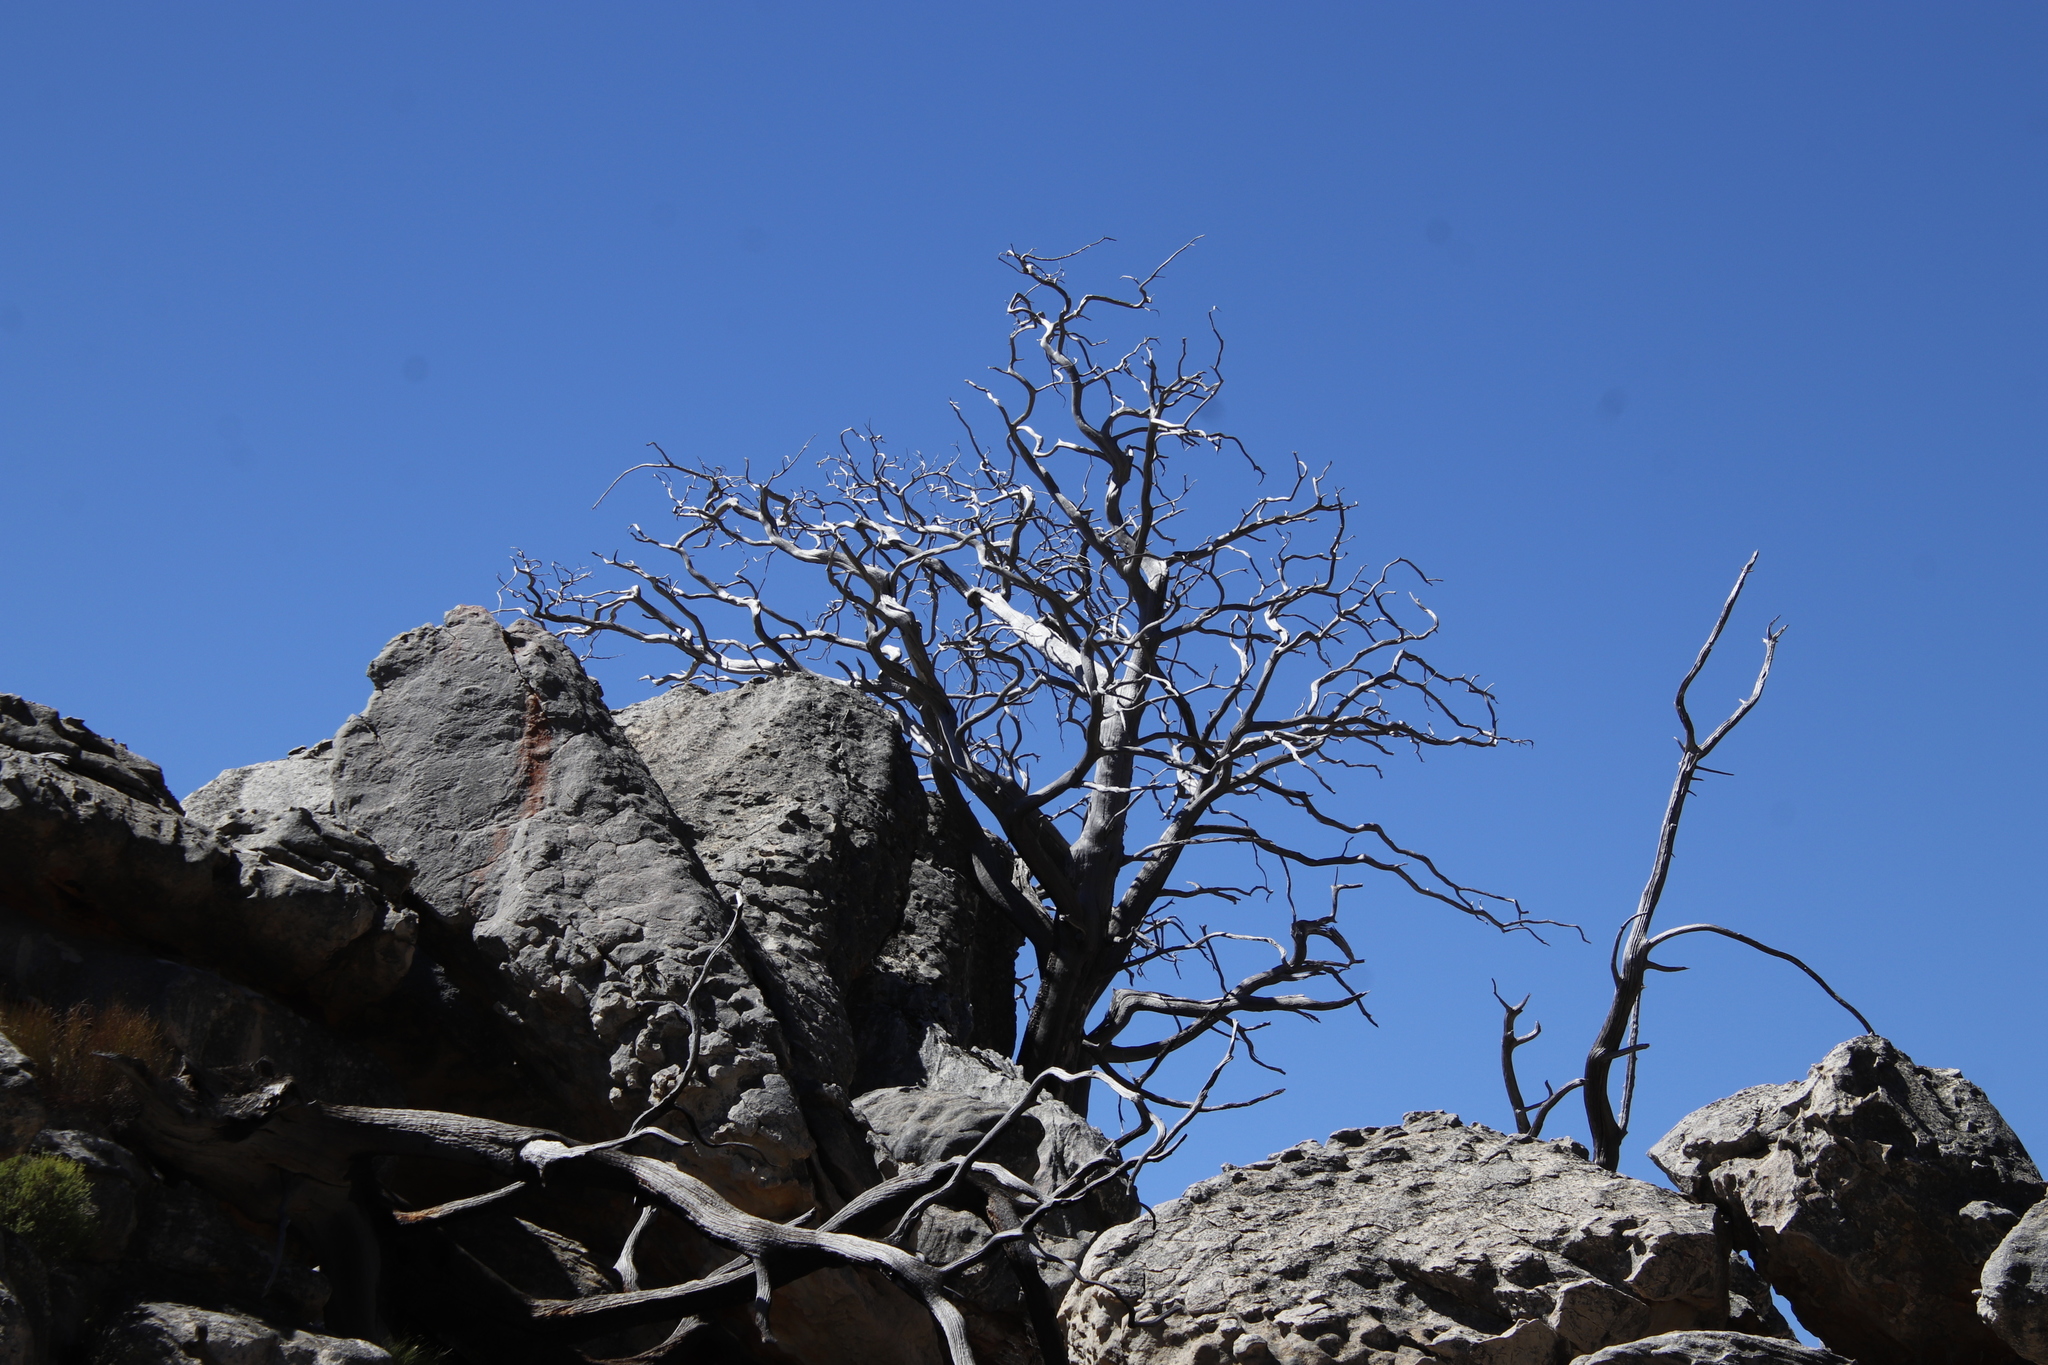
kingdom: Plantae
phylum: Tracheophyta
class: Pinopsida
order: Pinales
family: Cupressaceae
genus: Widdringtonia
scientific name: Widdringtonia nodiflora
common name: Cape cypress
